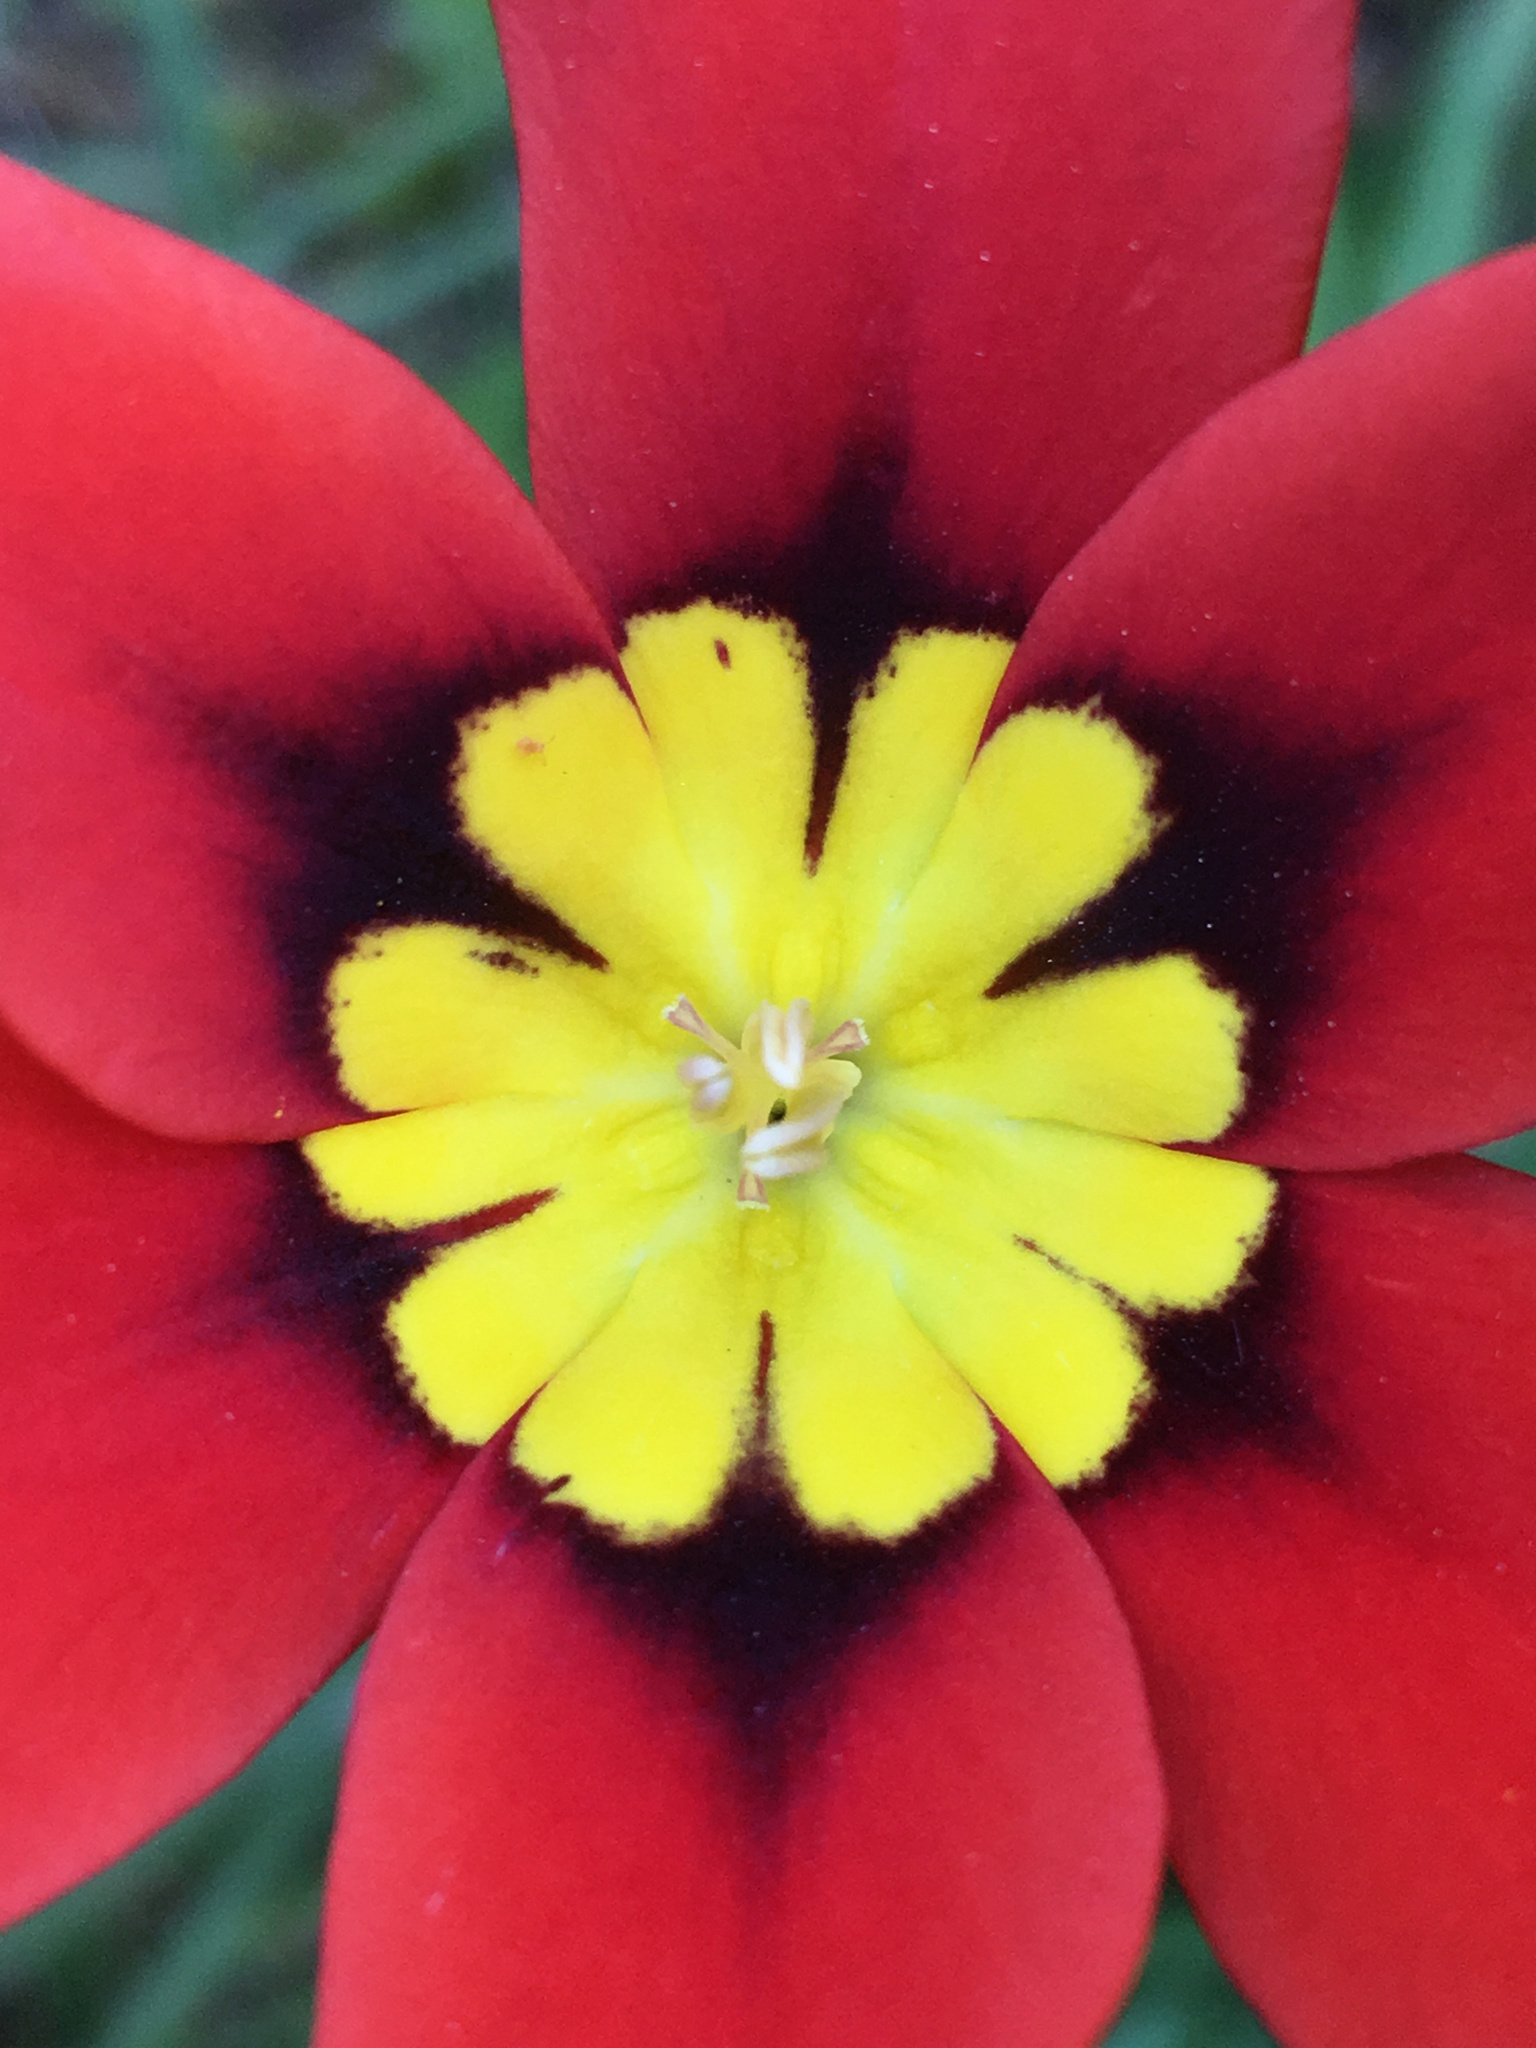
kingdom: Plantae
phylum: Tracheophyta
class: Liliopsida
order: Asparagales
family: Iridaceae
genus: Sparaxis
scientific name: Sparaxis tricolor
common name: Wandflower
